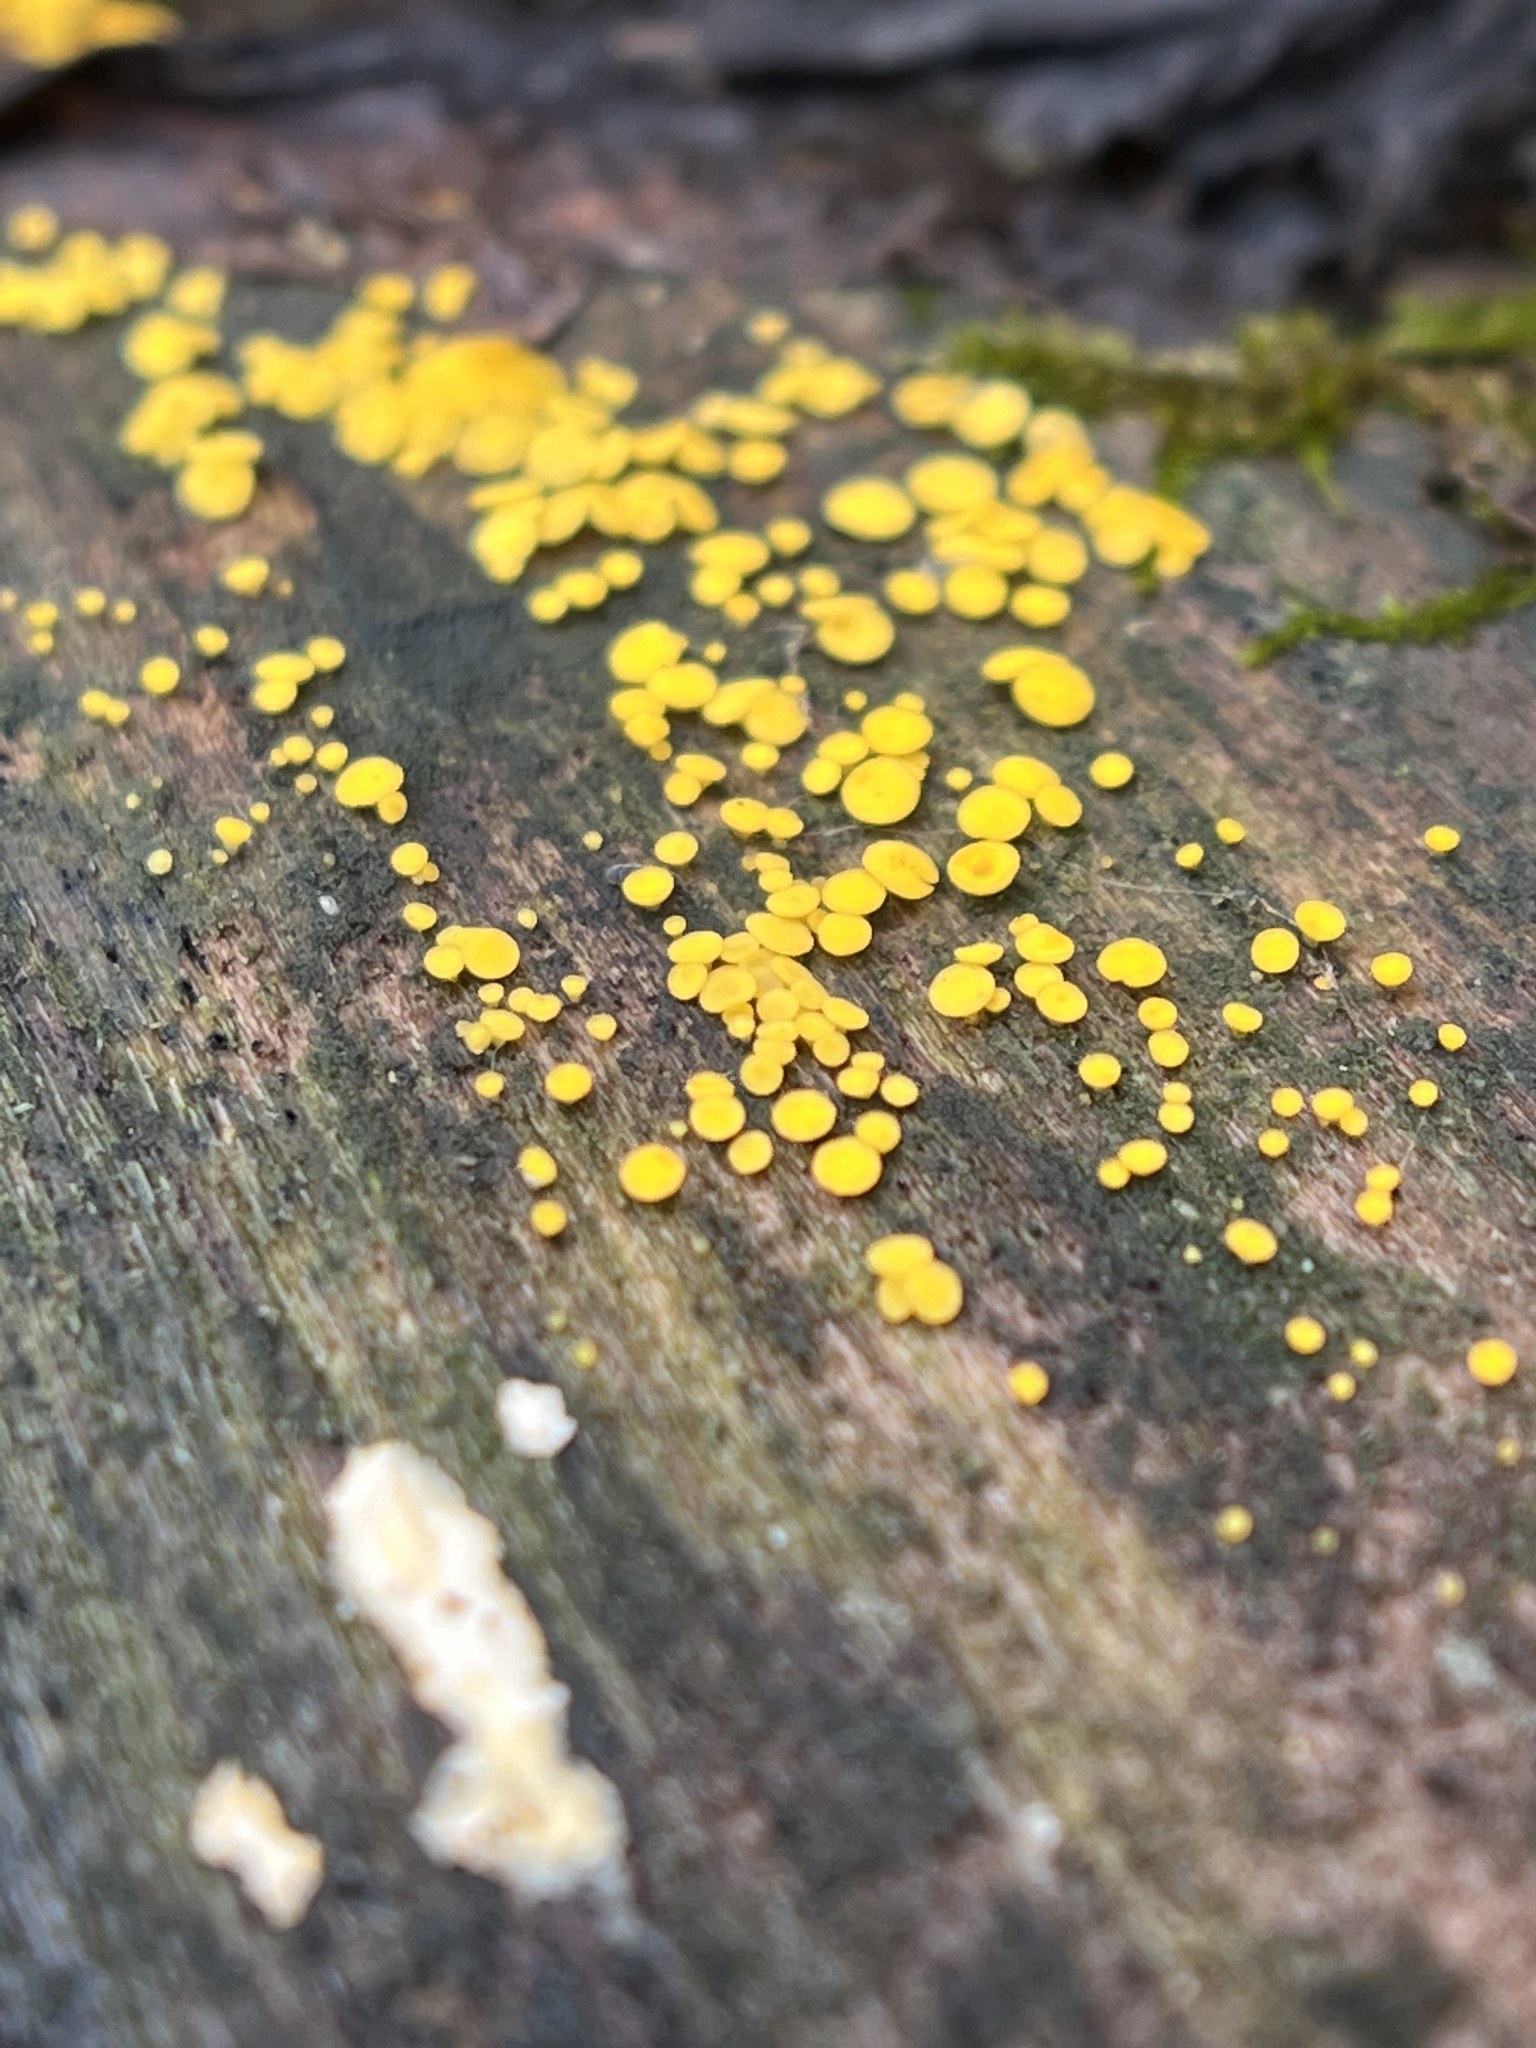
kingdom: Fungi
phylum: Ascomycota
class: Leotiomycetes
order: Helotiales
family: Pezizellaceae
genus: Calycina
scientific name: Calycina citrina
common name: Yellow fairy cups
